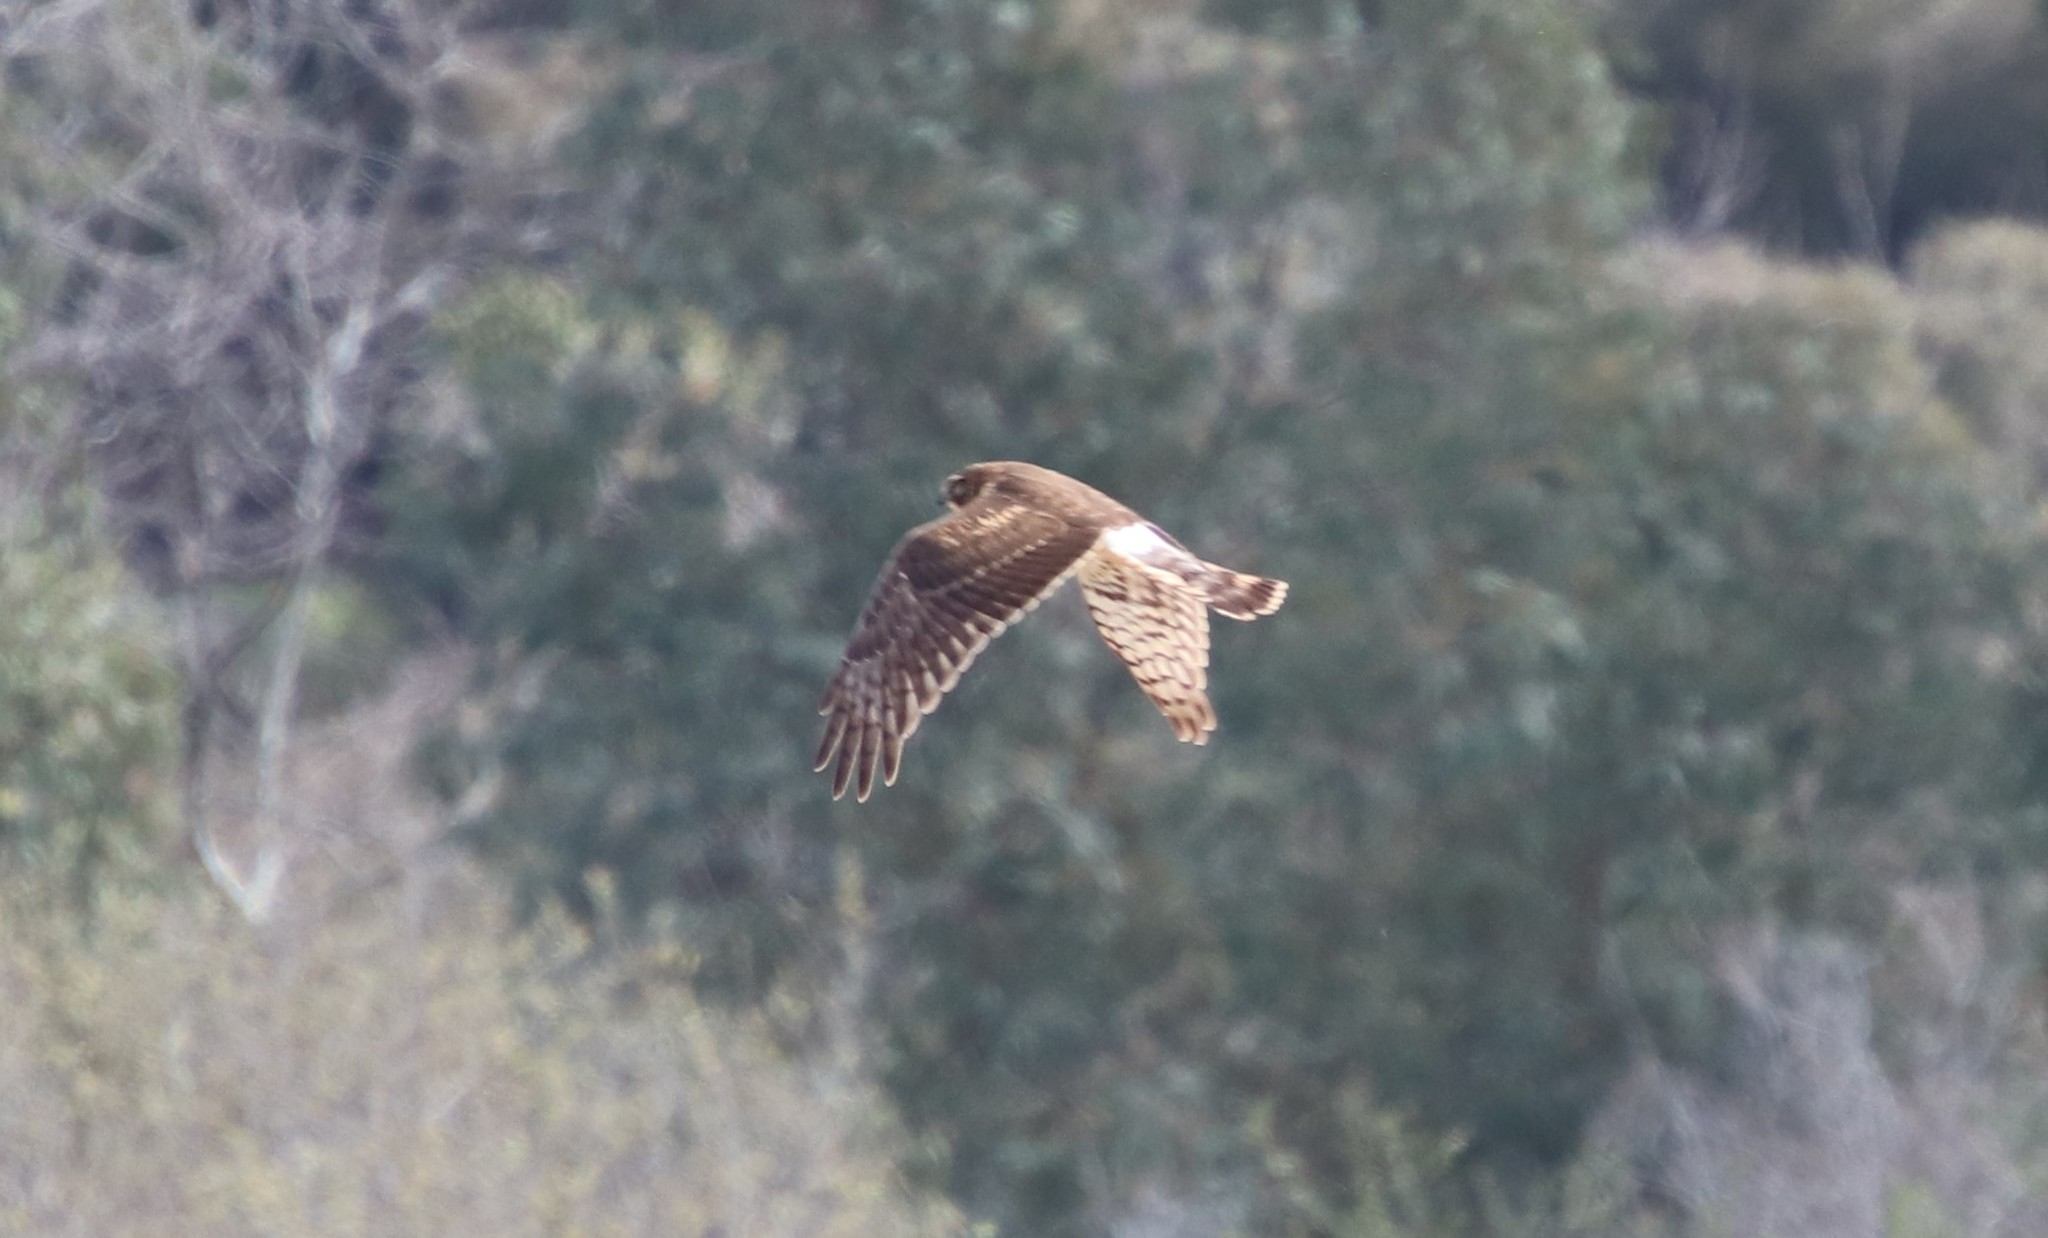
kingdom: Animalia
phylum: Chordata
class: Aves
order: Accipitriformes
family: Accipitridae
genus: Circus
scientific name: Circus cyaneus
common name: Hen harrier
